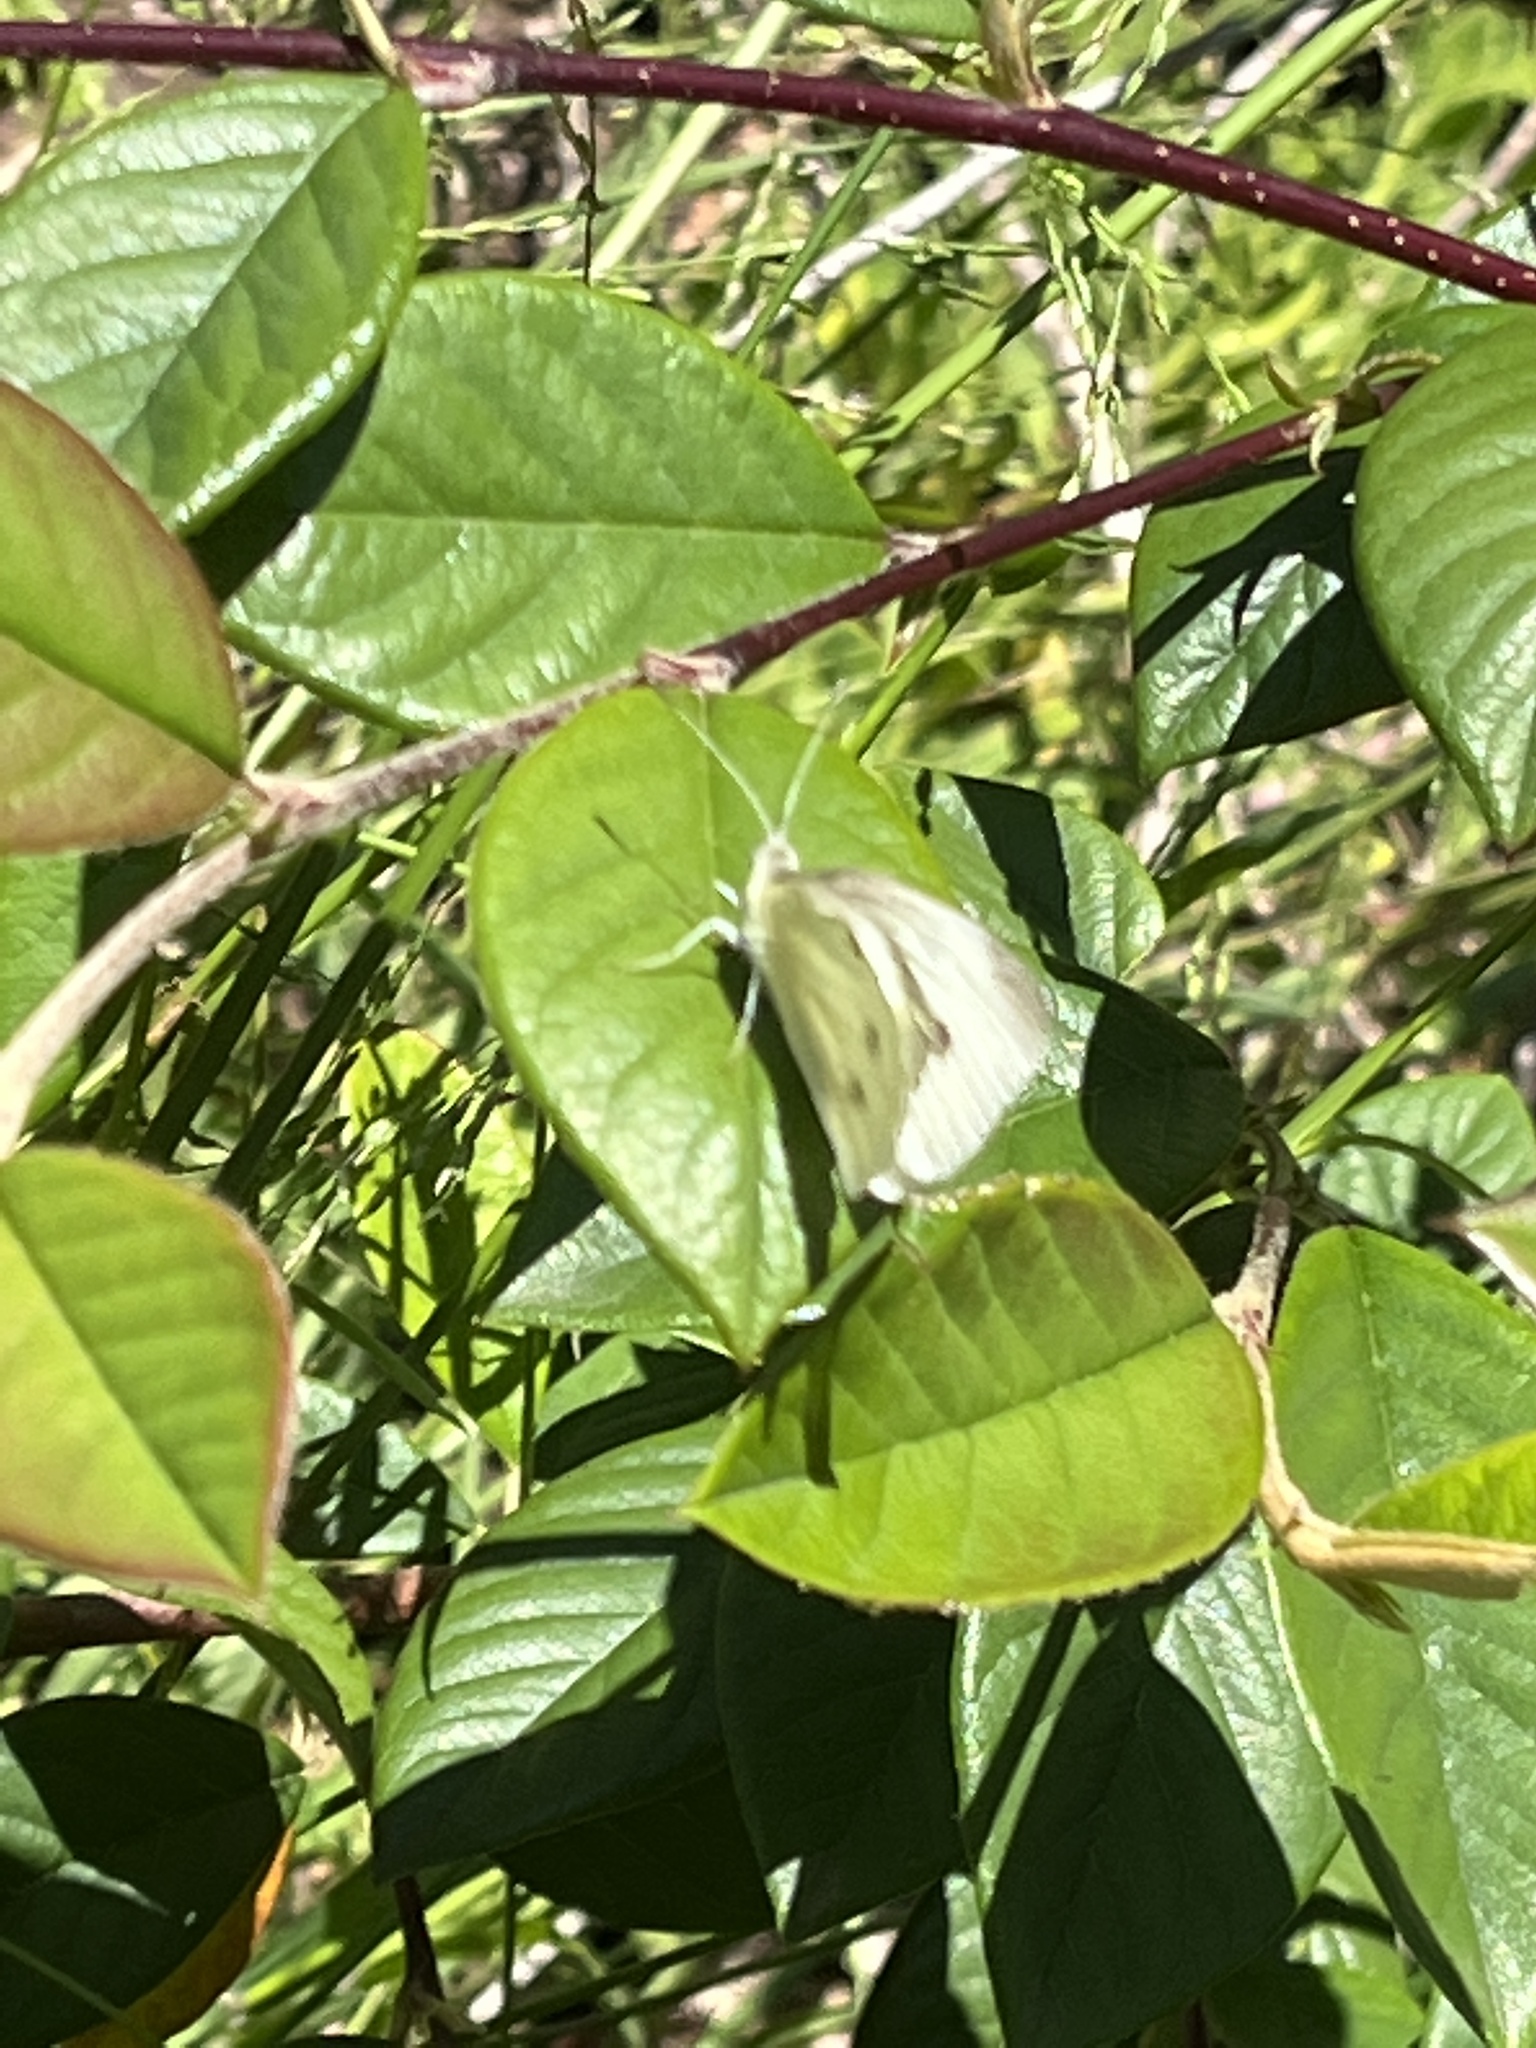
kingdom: Animalia
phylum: Arthropoda
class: Insecta
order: Lepidoptera
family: Pieridae
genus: Pieris
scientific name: Pieris rapae
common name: Small white
